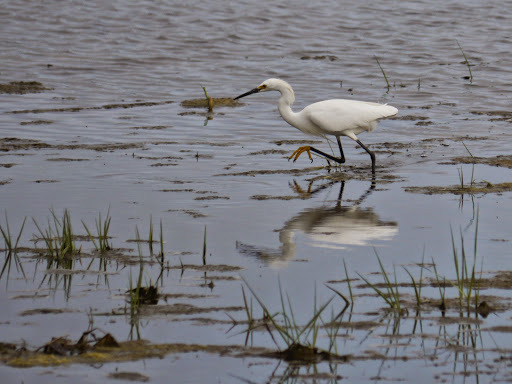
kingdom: Animalia
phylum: Chordata
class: Aves
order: Pelecaniformes
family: Ardeidae
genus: Egretta
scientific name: Egretta thula
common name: Snowy egret
